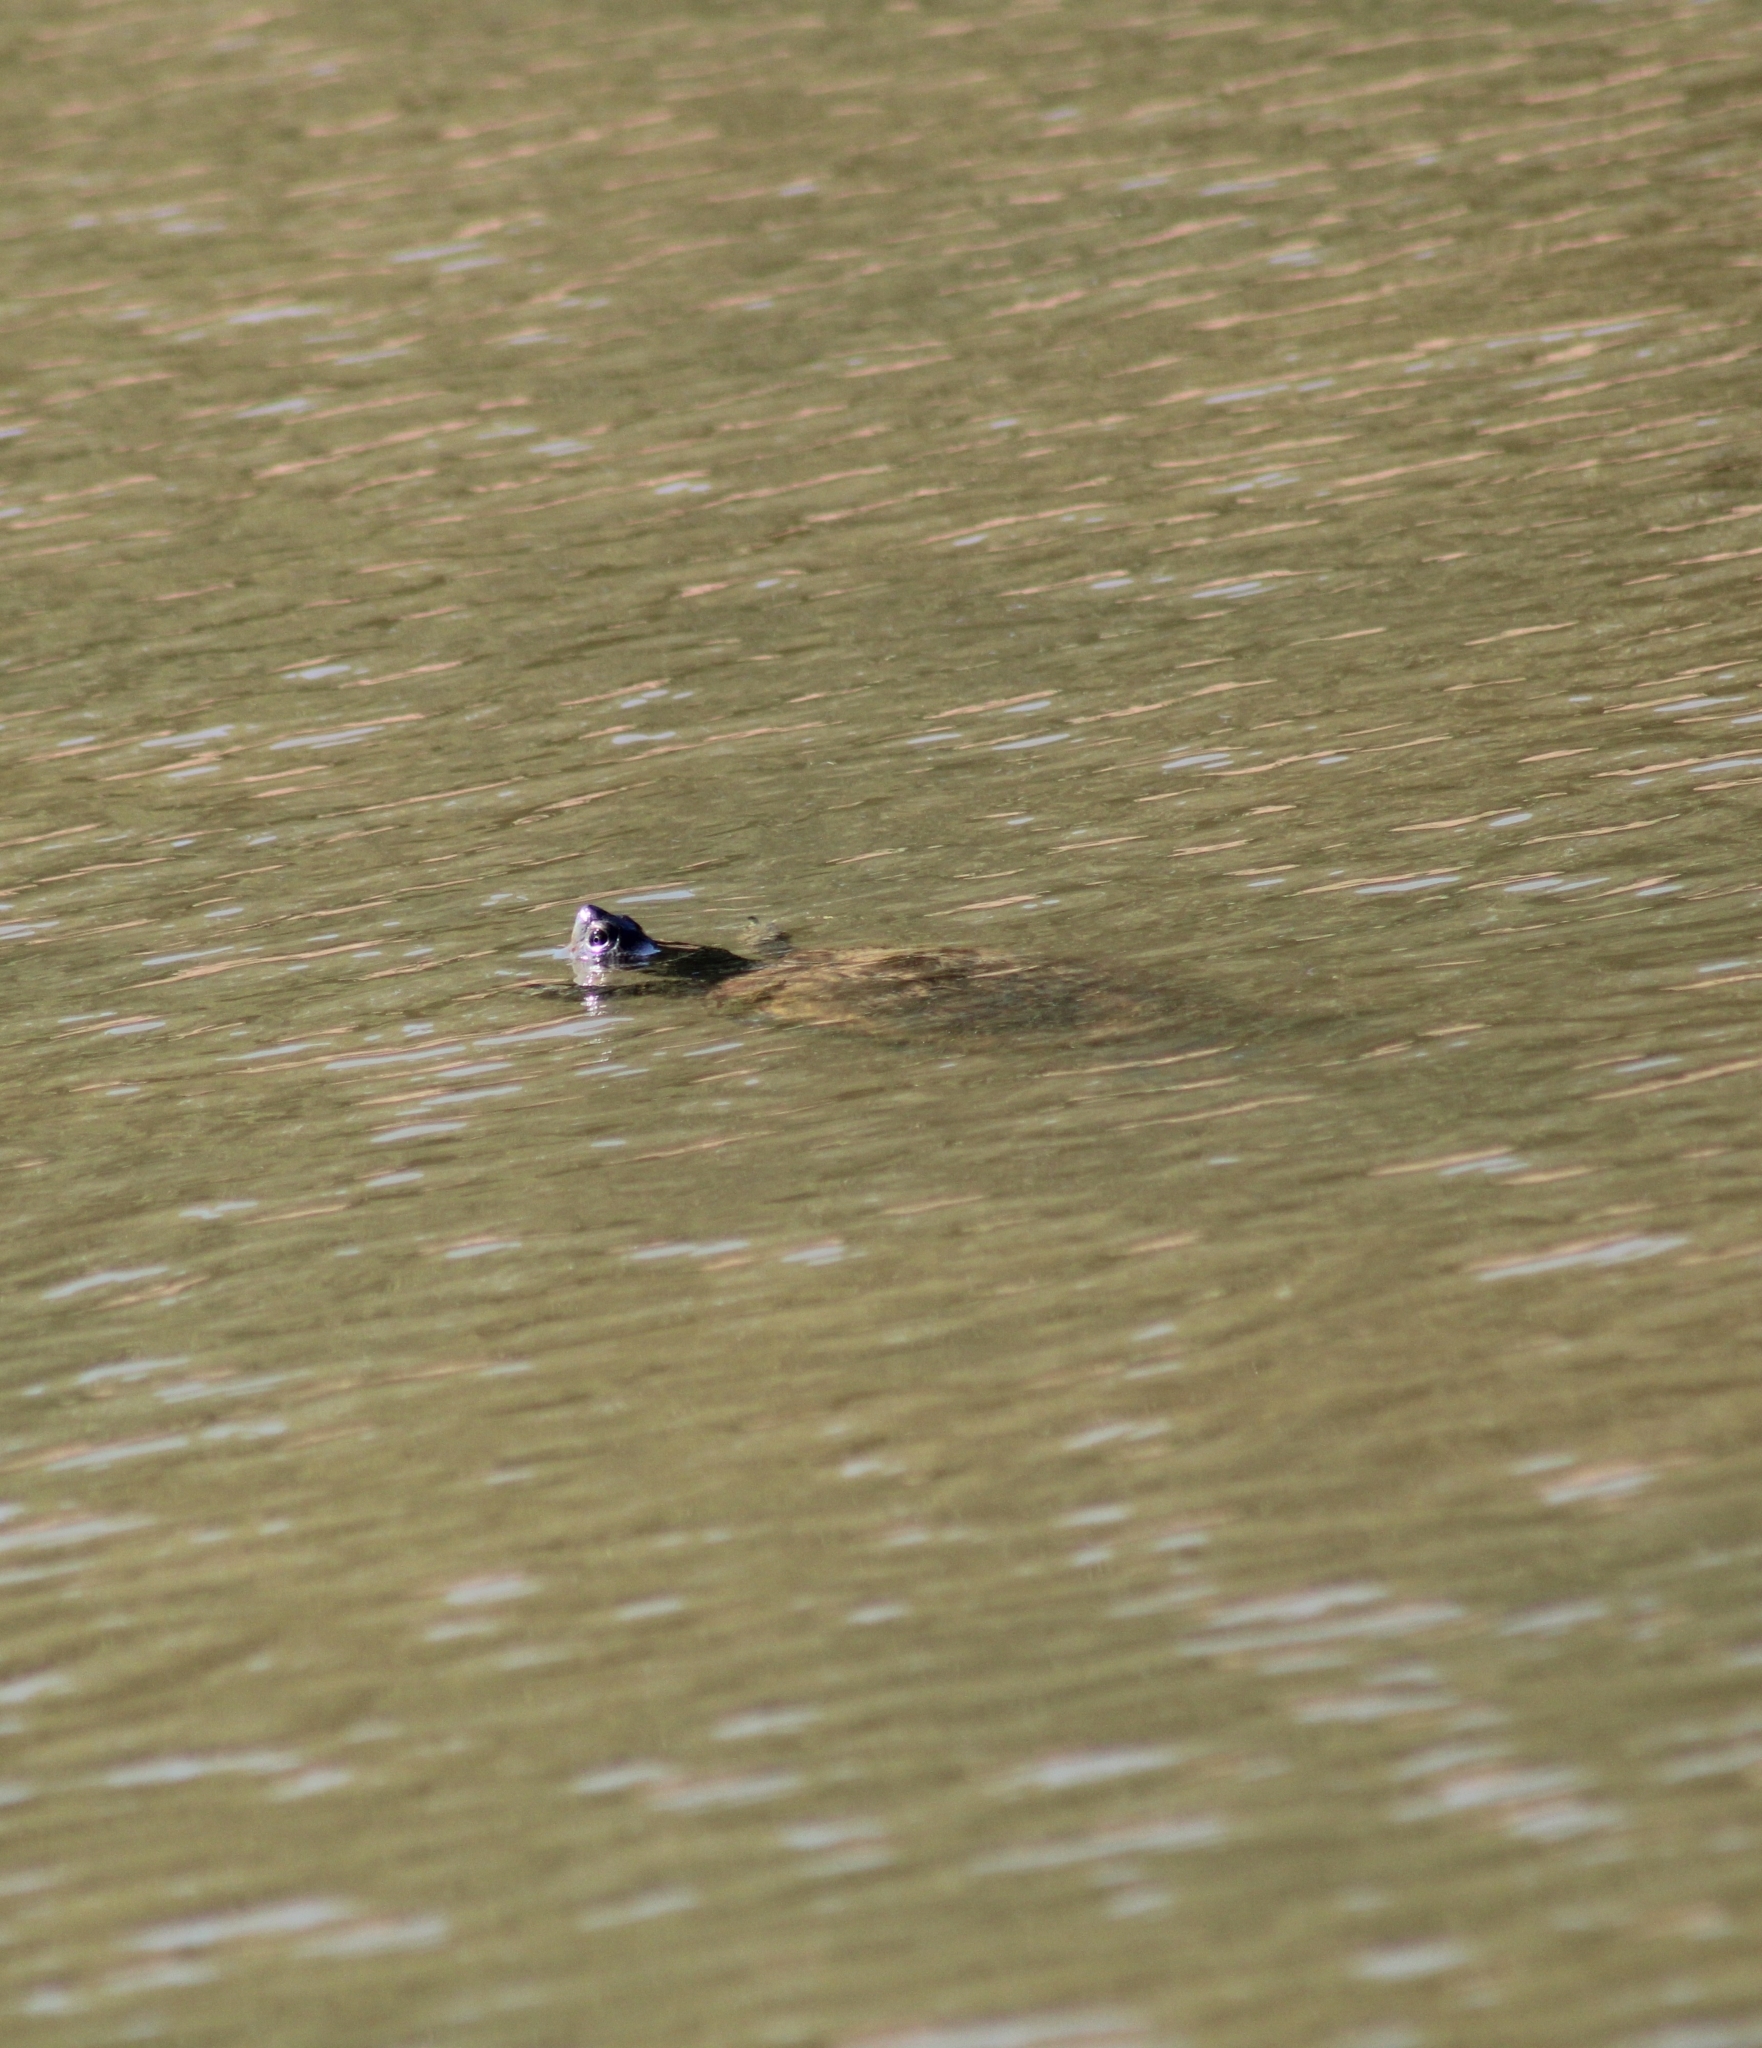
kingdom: Animalia
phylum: Chordata
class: Testudines
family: Emydidae
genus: Trachemys
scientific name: Trachemys scripta
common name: Slider
